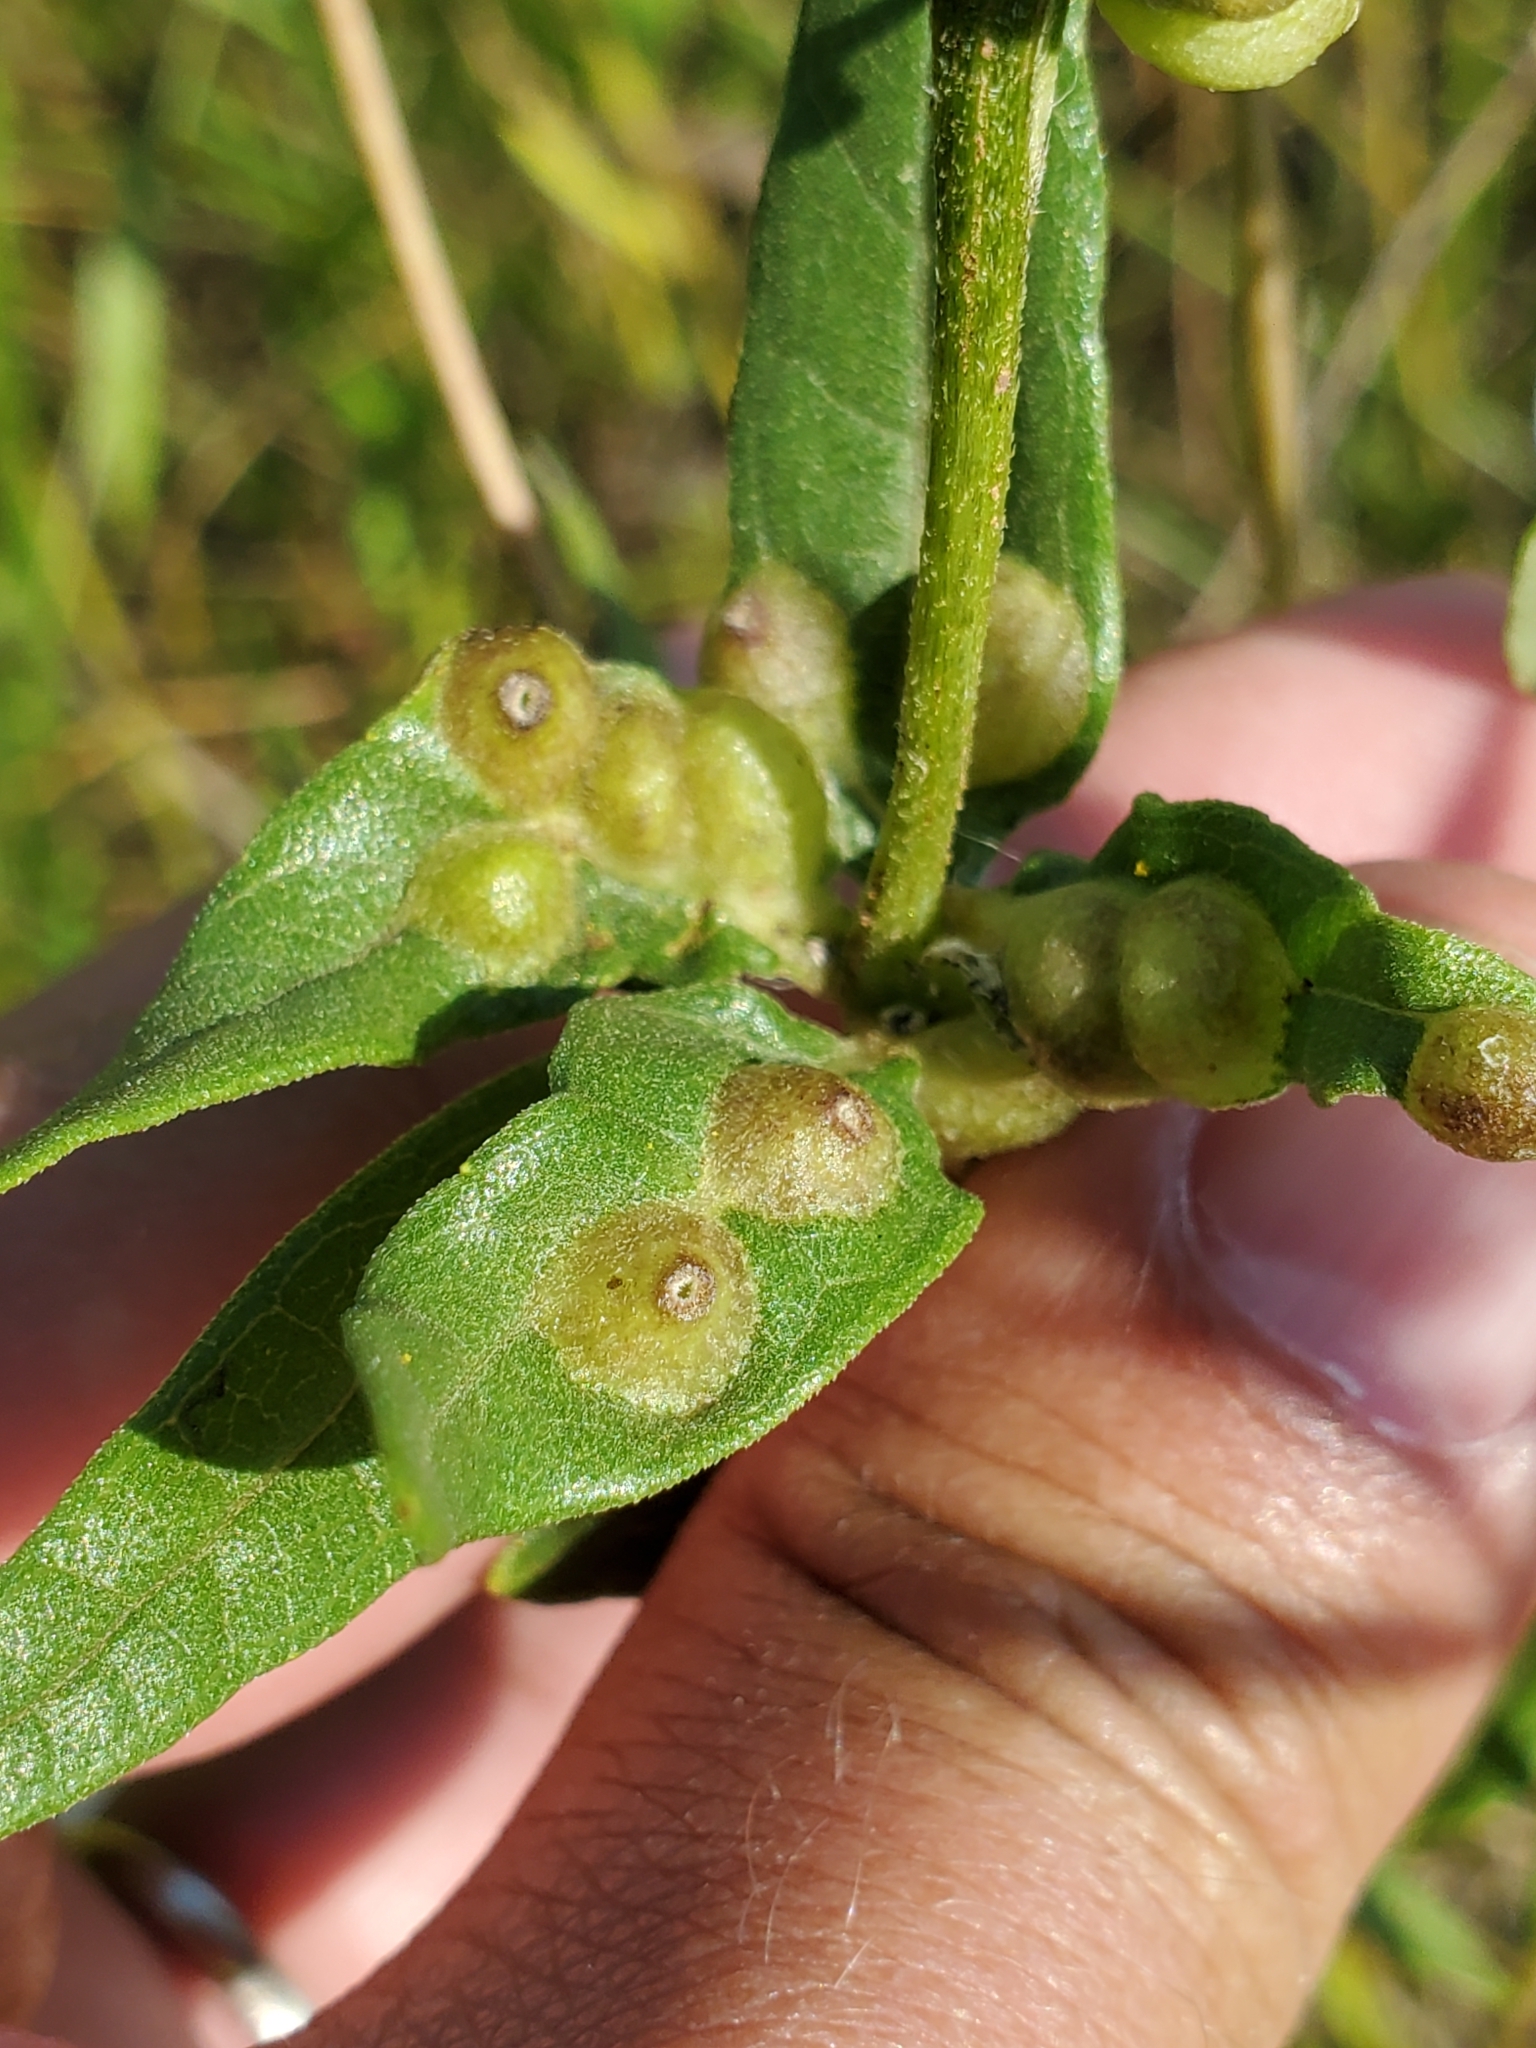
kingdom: Animalia
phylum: Arthropoda
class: Insecta
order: Diptera
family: Cecidomyiidae
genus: Pilodiplosis
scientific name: Pilodiplosis helianthibulla
